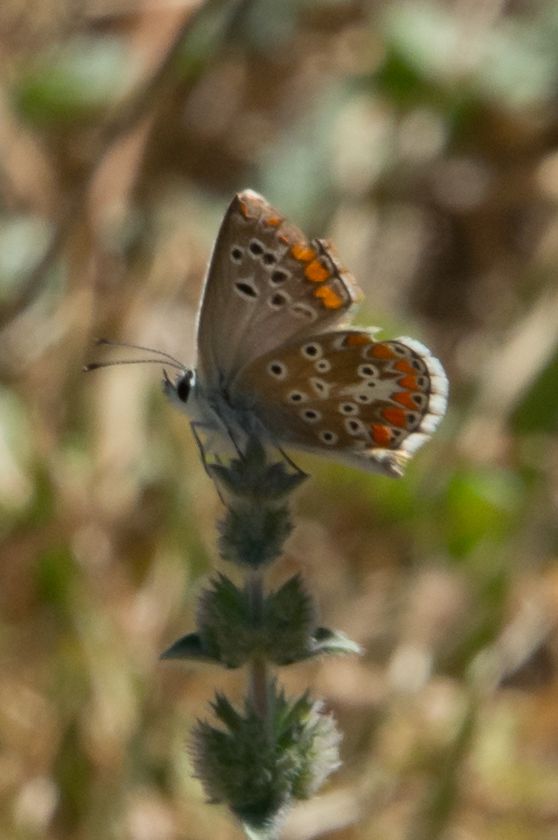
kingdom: Animalia
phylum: Arthropoda
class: Insecta
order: Lepidoptera
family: Lycaenidae
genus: Aricia
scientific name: Aricia agestis
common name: Brown argus
